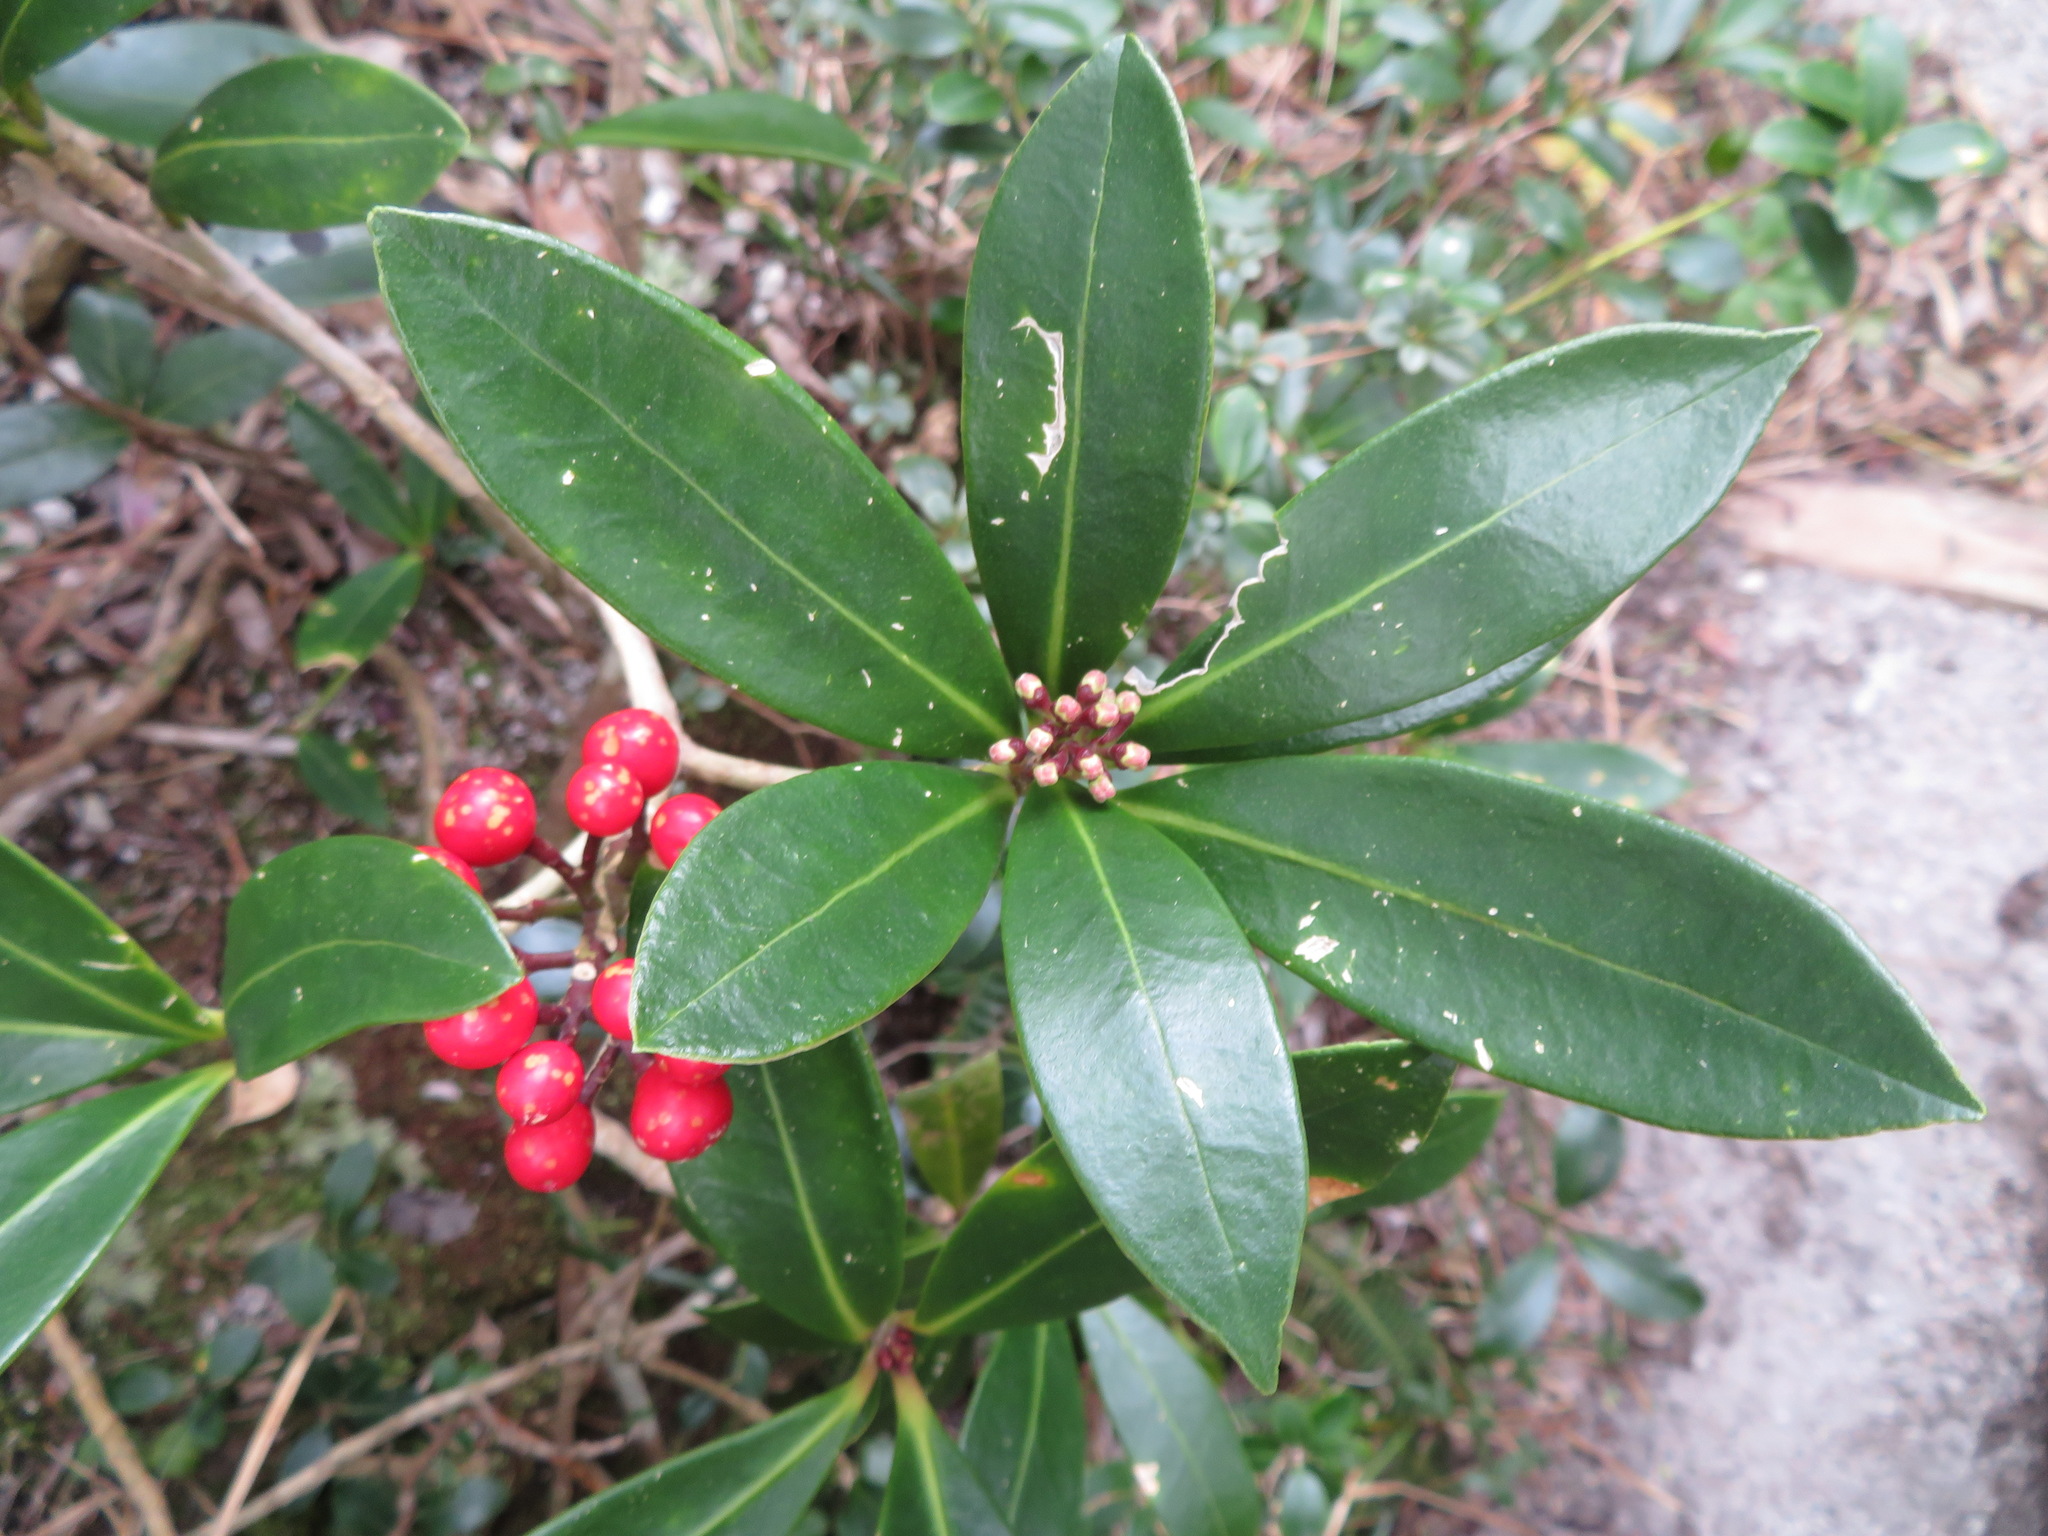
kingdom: Plantae
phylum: Tracheophyta
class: Magnoliopsida
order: Sapindales
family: Rutaceae
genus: Skimmia
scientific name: Skimmia japonica
